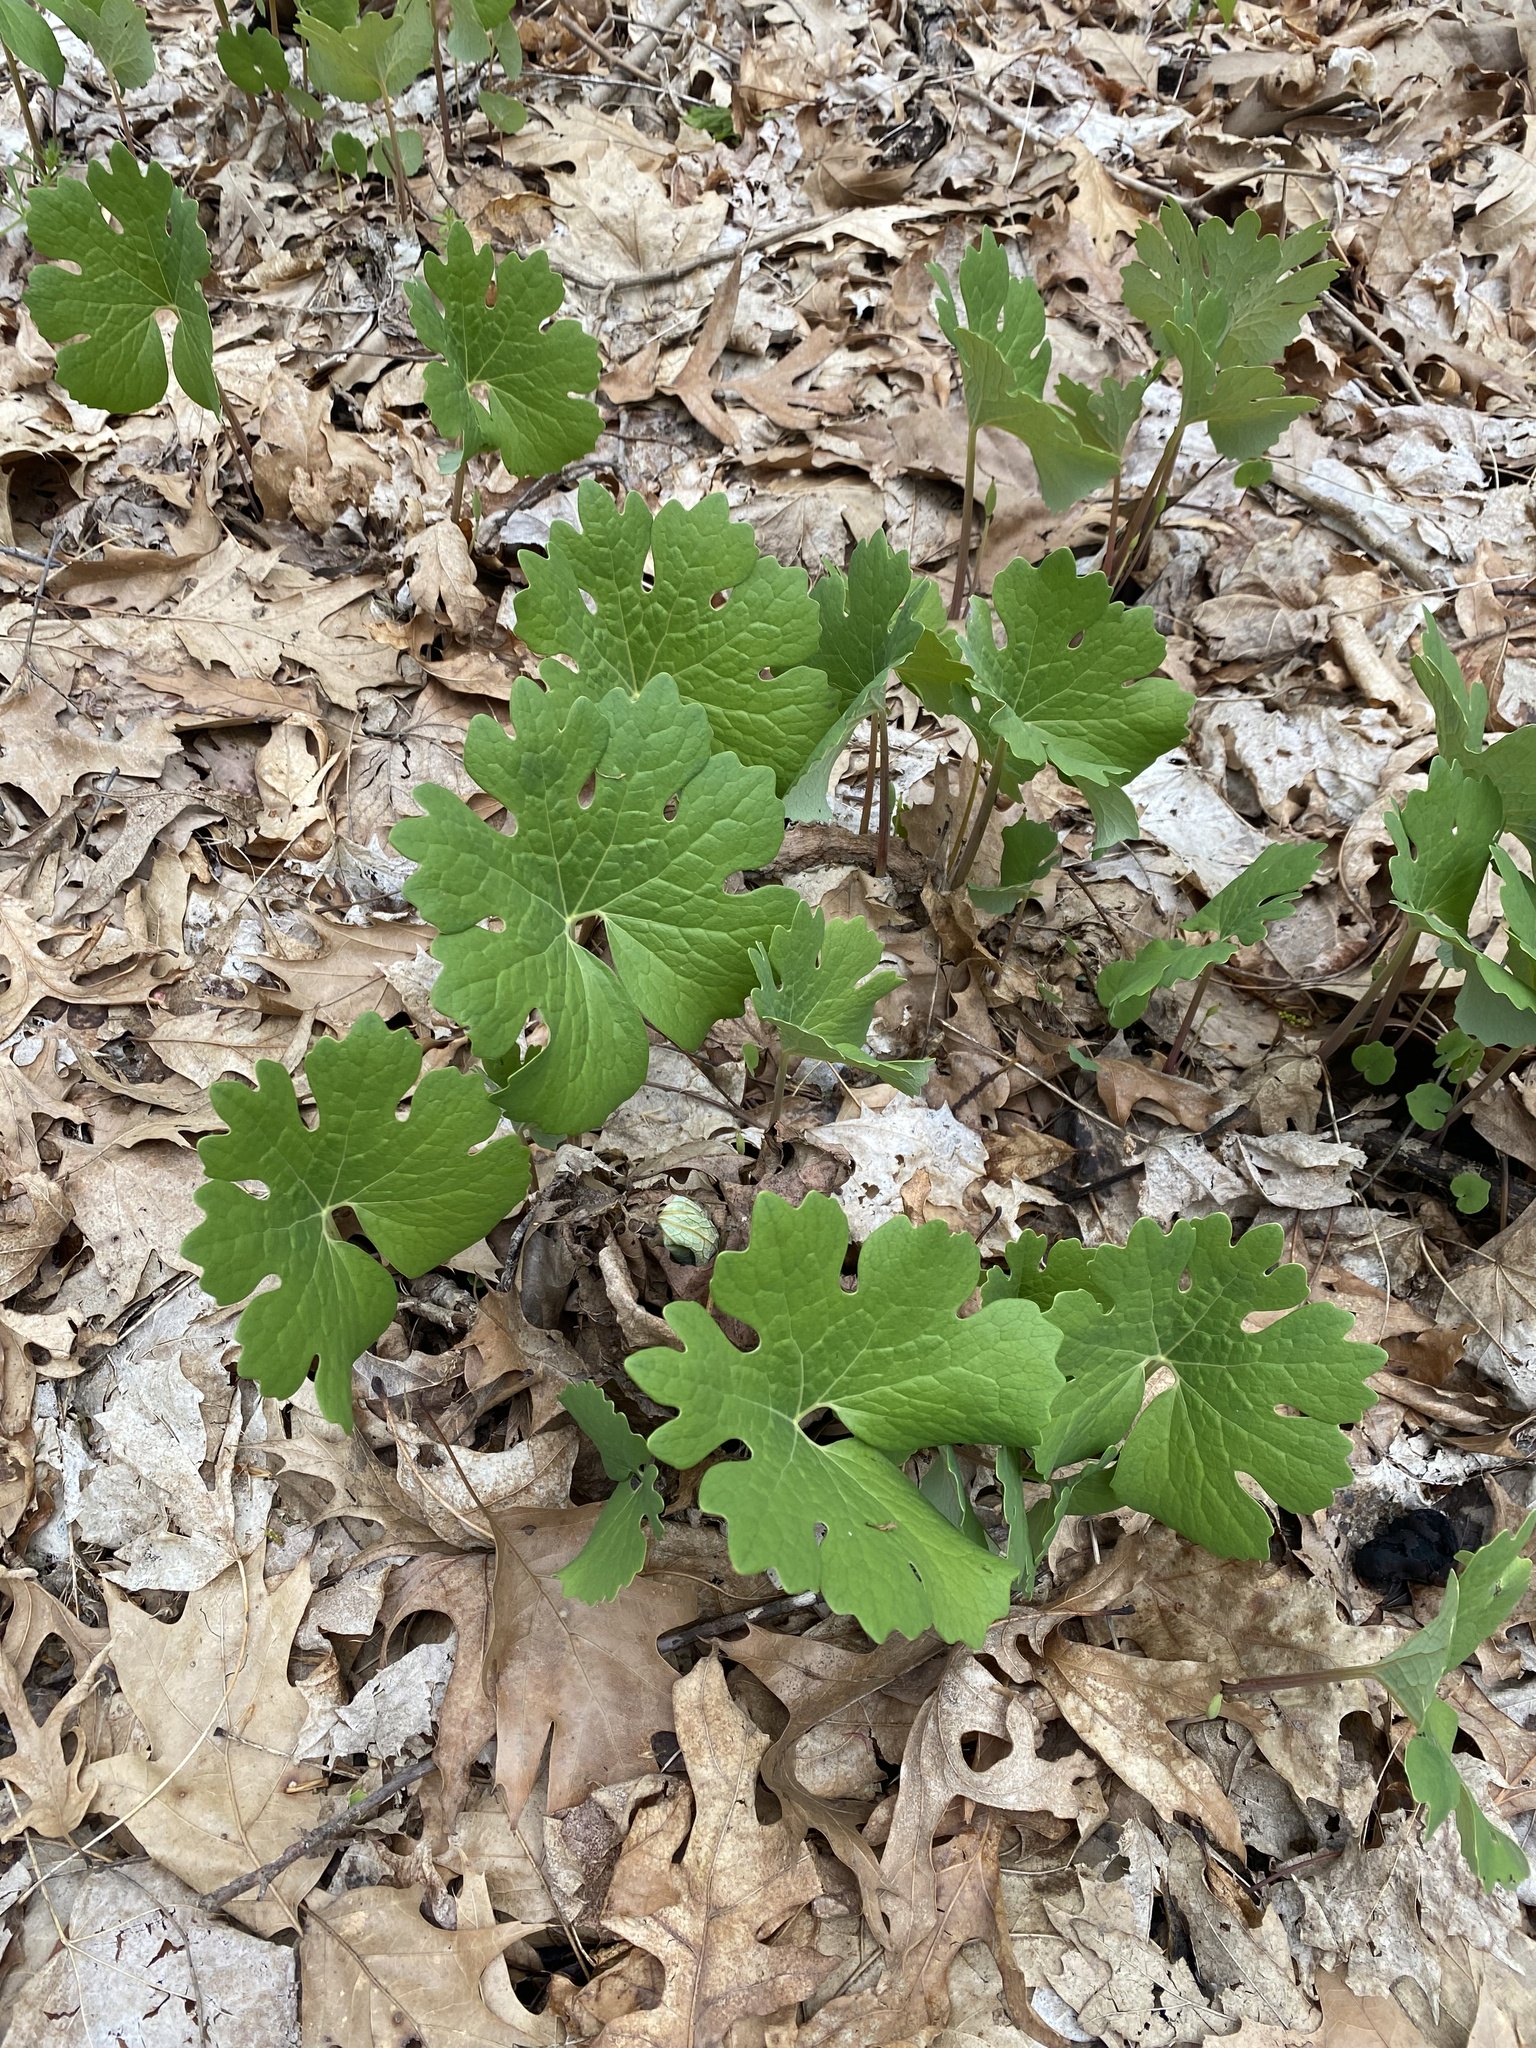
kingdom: Plantae
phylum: Tracheophyta
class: Magnoliopsida
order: Ranunculales
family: Papaveraceae
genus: Sanguinaria
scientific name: Sanguinaria canadensis
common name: Bloodroot
